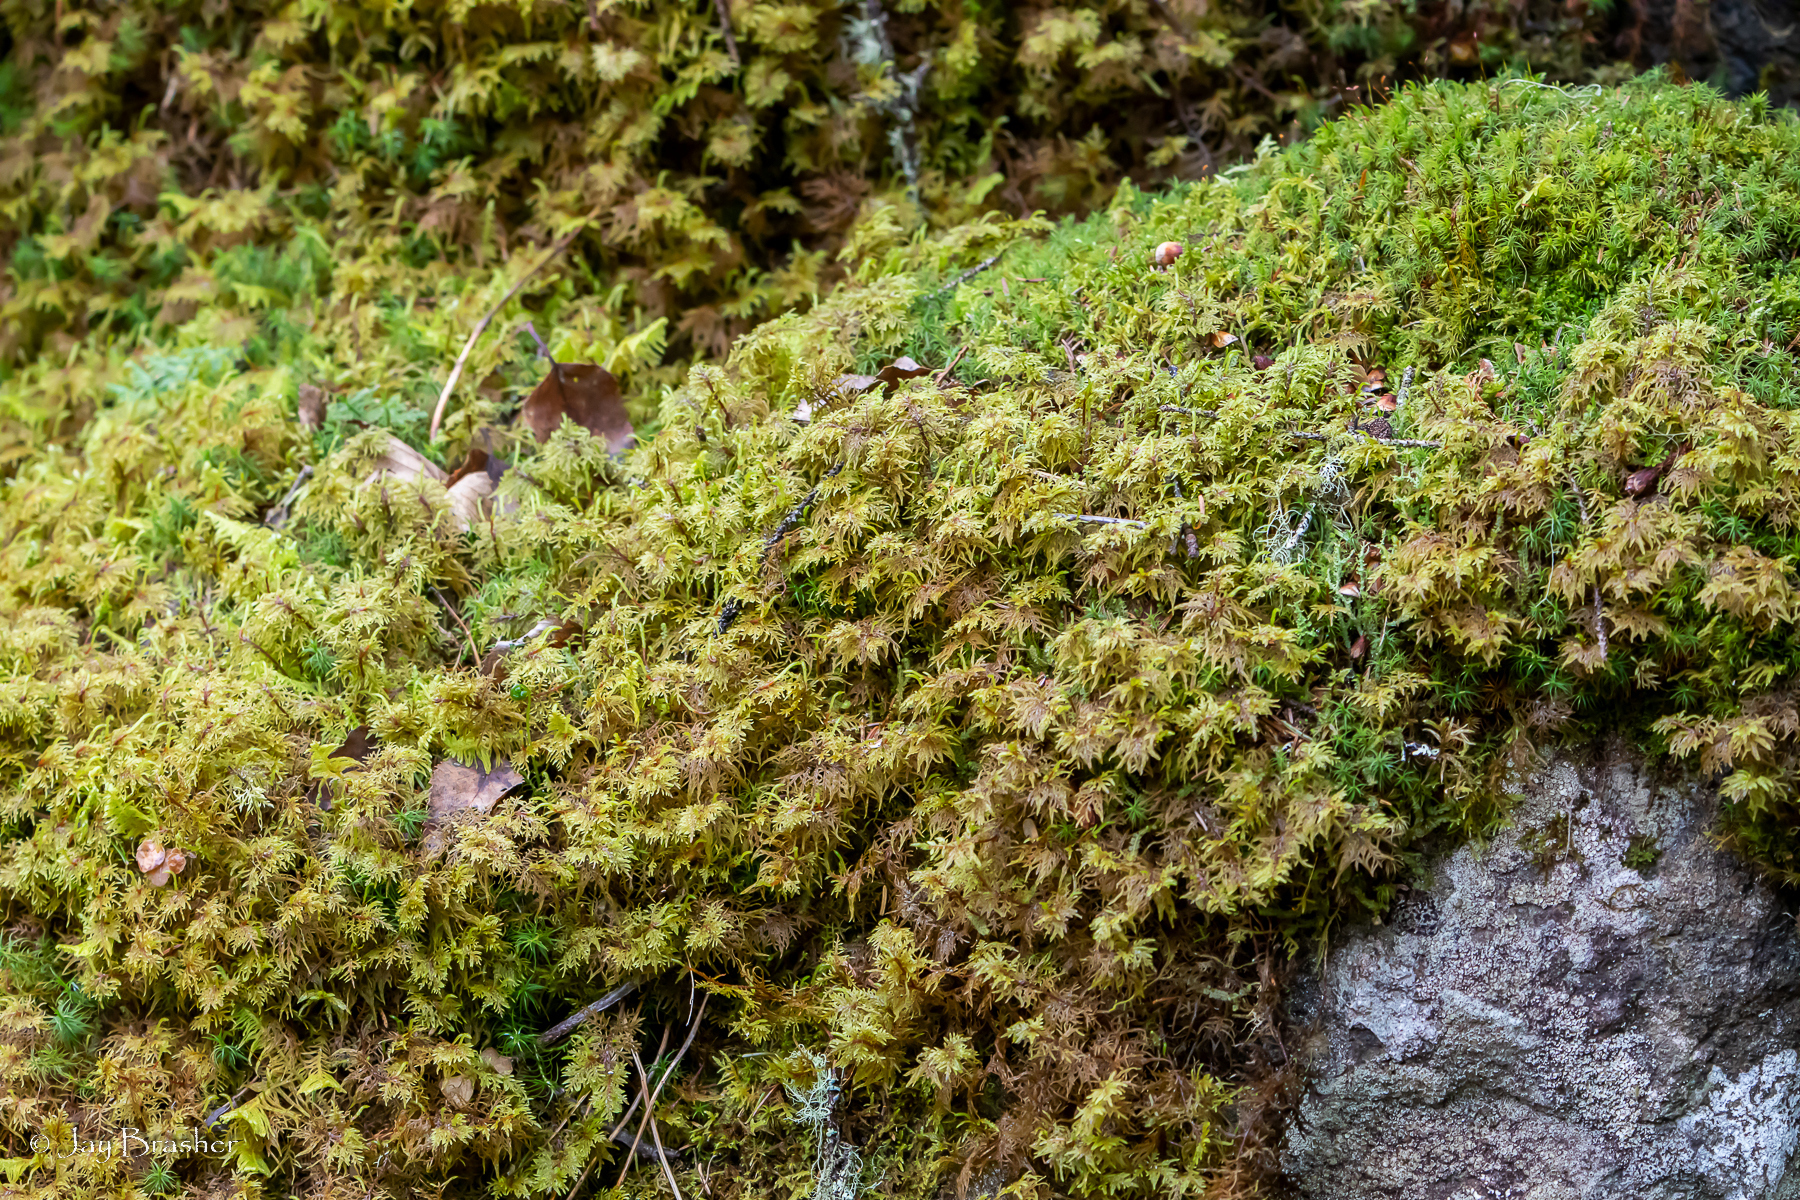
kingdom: Plantae
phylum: Bryophyta
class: Bryopsida
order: Hypnales
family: Hylocomiaceae
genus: Hylocomium
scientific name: Hylocomium splendens
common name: Stairstep moss
